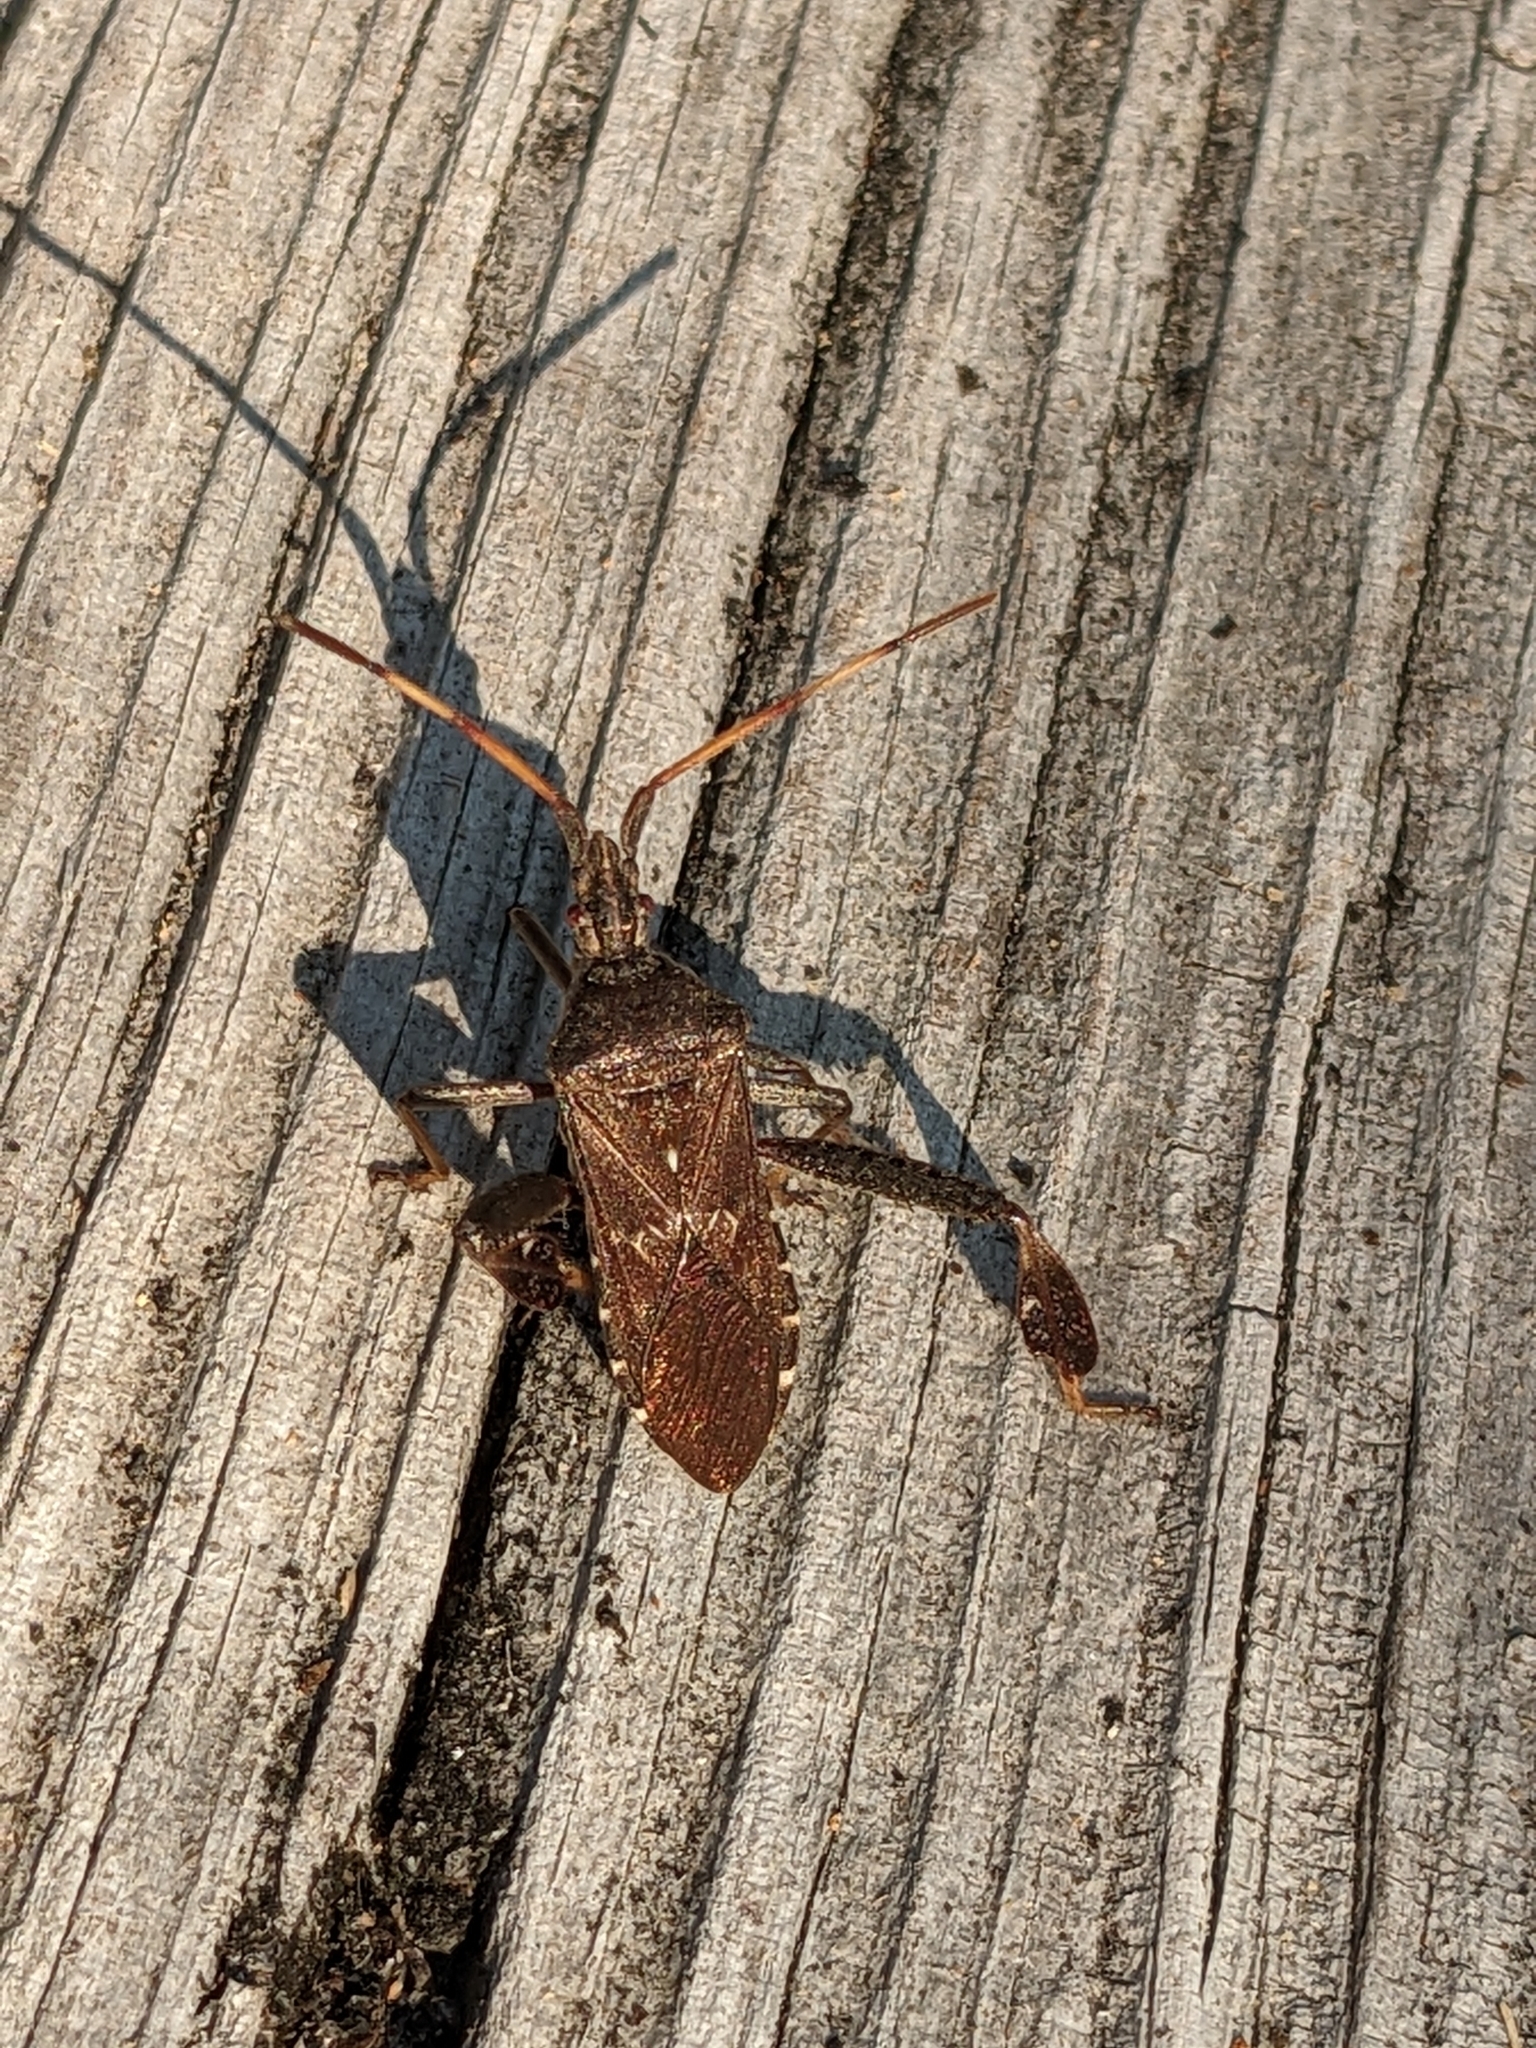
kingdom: Animalia
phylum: Arthropoda
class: Insecta
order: Hemiptera
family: Coreidae
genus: Leptoglossus
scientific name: Leptoglossus corculus
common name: Southern pine seed bug
